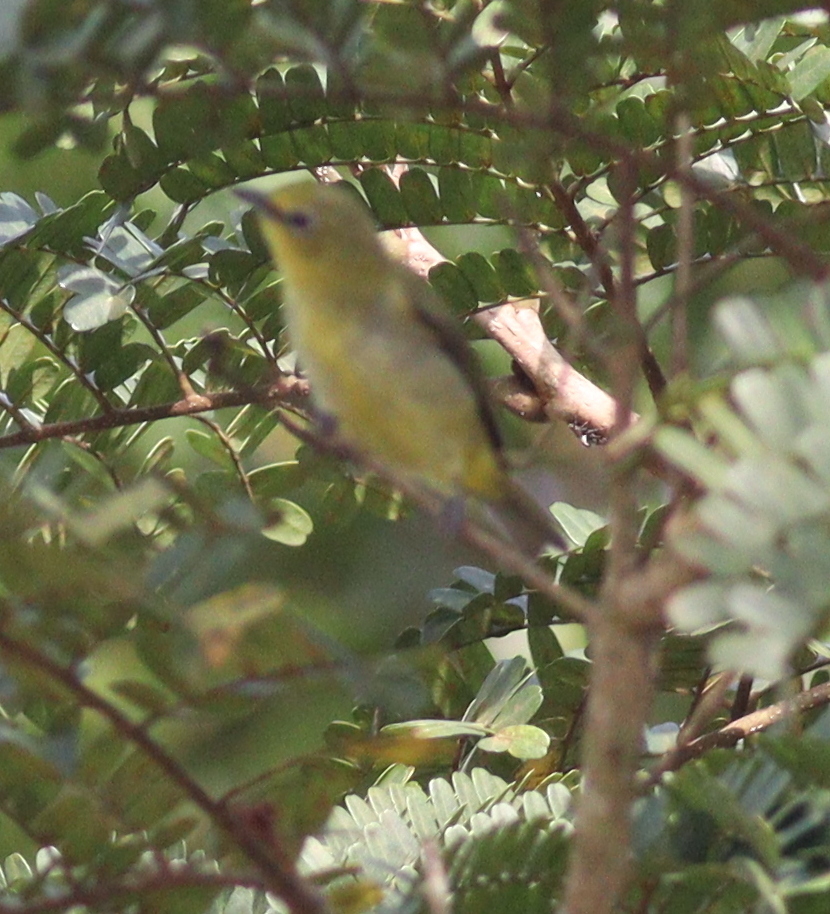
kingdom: Animalia
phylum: Chordata
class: Aves
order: Passeriformes
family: Zosteropidae
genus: Zosterops
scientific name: Zosterops senegalensis
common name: African yellow white-eye
